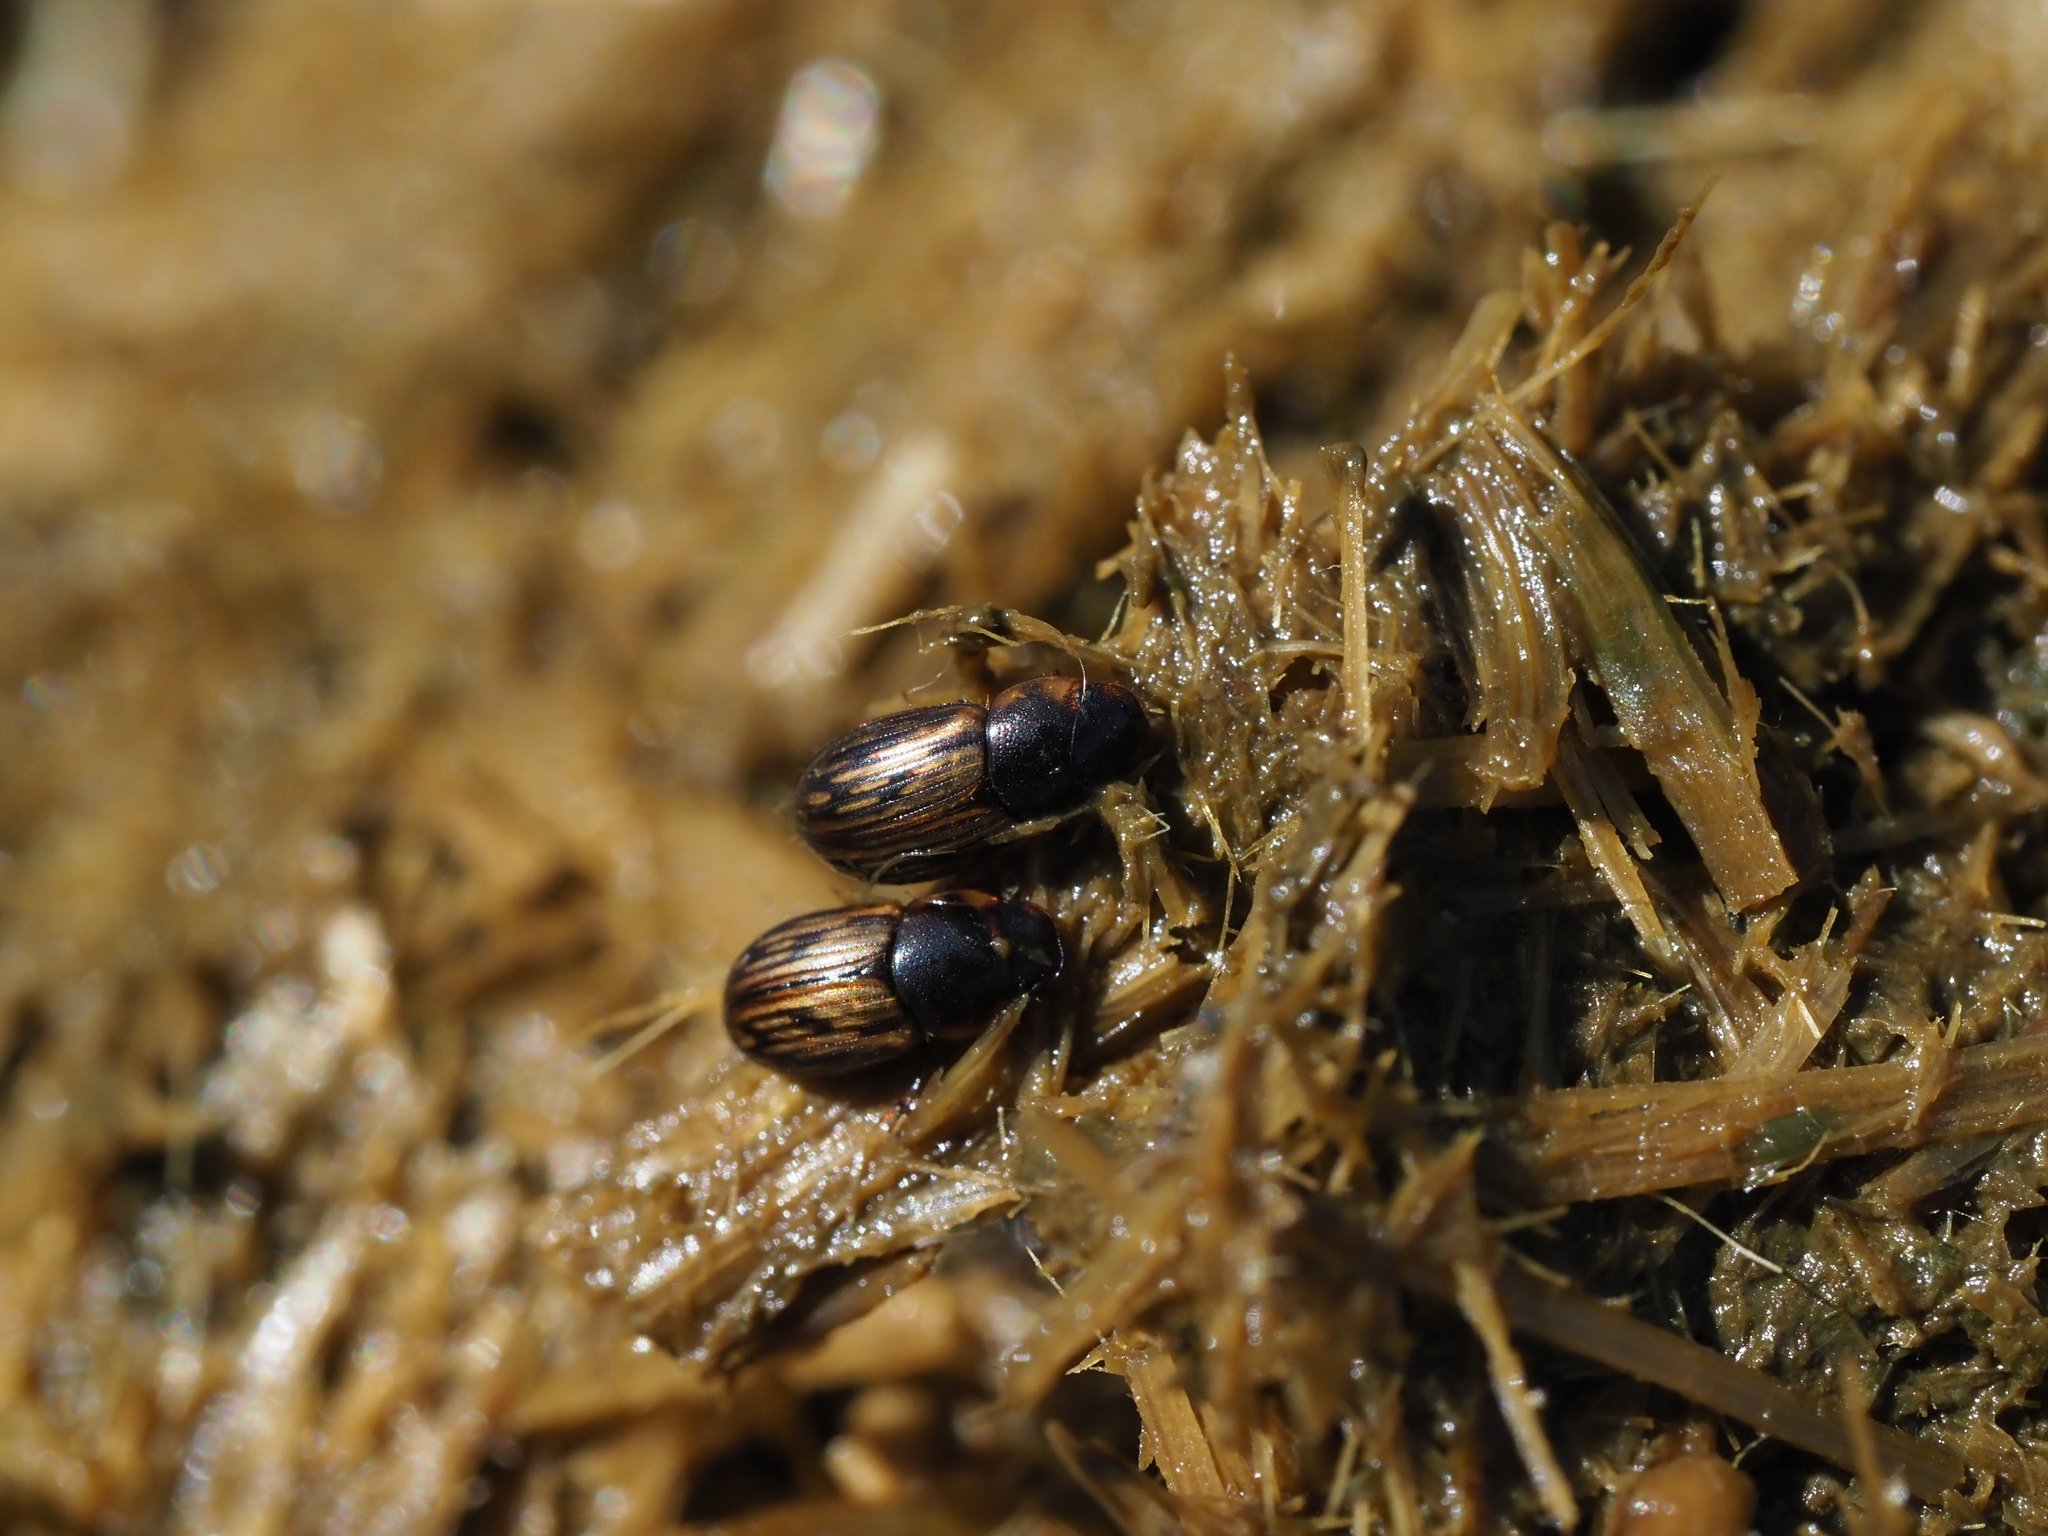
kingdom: Animalia
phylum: Arthropoda
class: Insecta
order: Coleoptera
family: Scarabaeidae
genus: Volinus
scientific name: Volinus sticticus
